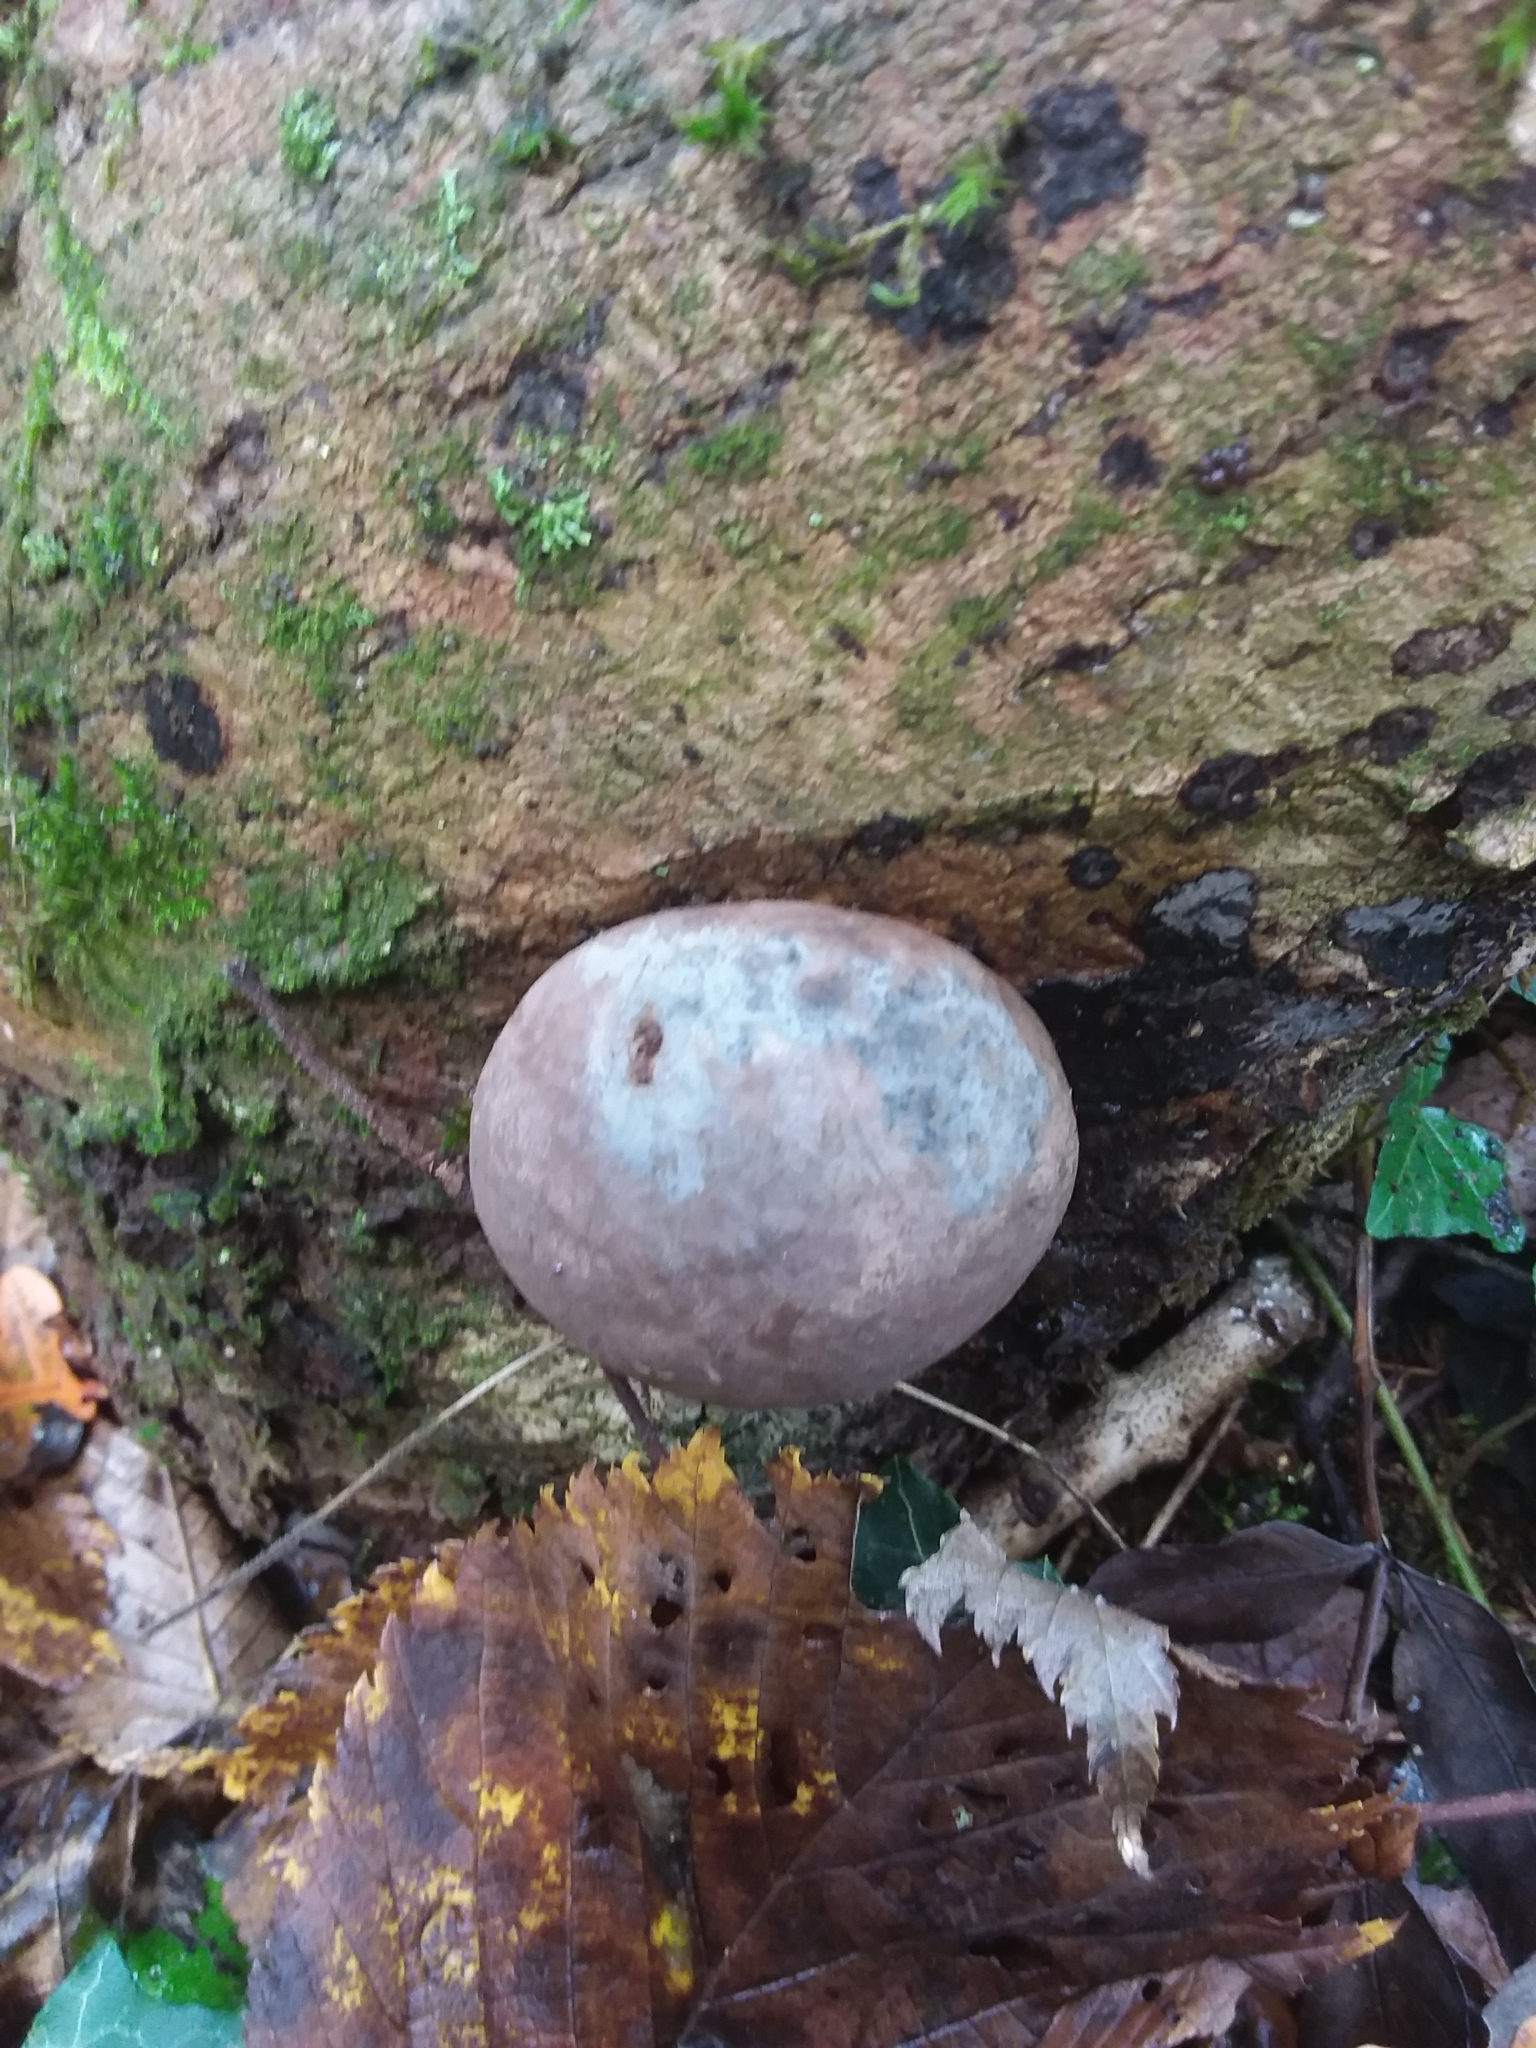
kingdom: Fungi
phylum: Ascomycota
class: Sordariomycetes
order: Xylariales
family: Hypoxylaceae
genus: Daldinia
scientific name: Daldinia concentrica
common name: Cramp balls
